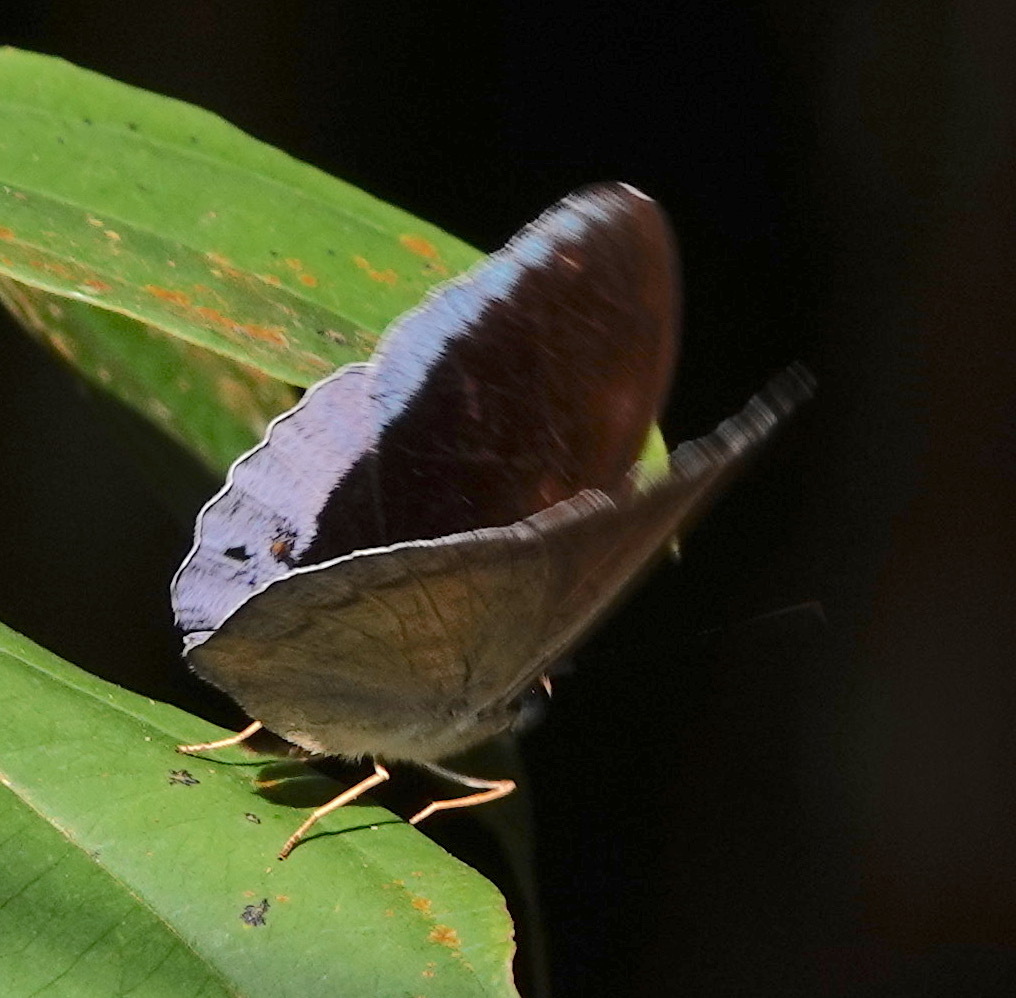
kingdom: Animalia
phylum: Arthropoda
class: Insecta
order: Lepidoptera
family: Nymphalidae
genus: Tanaecia
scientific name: Tanaecia iapis
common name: Horsfield's baron
